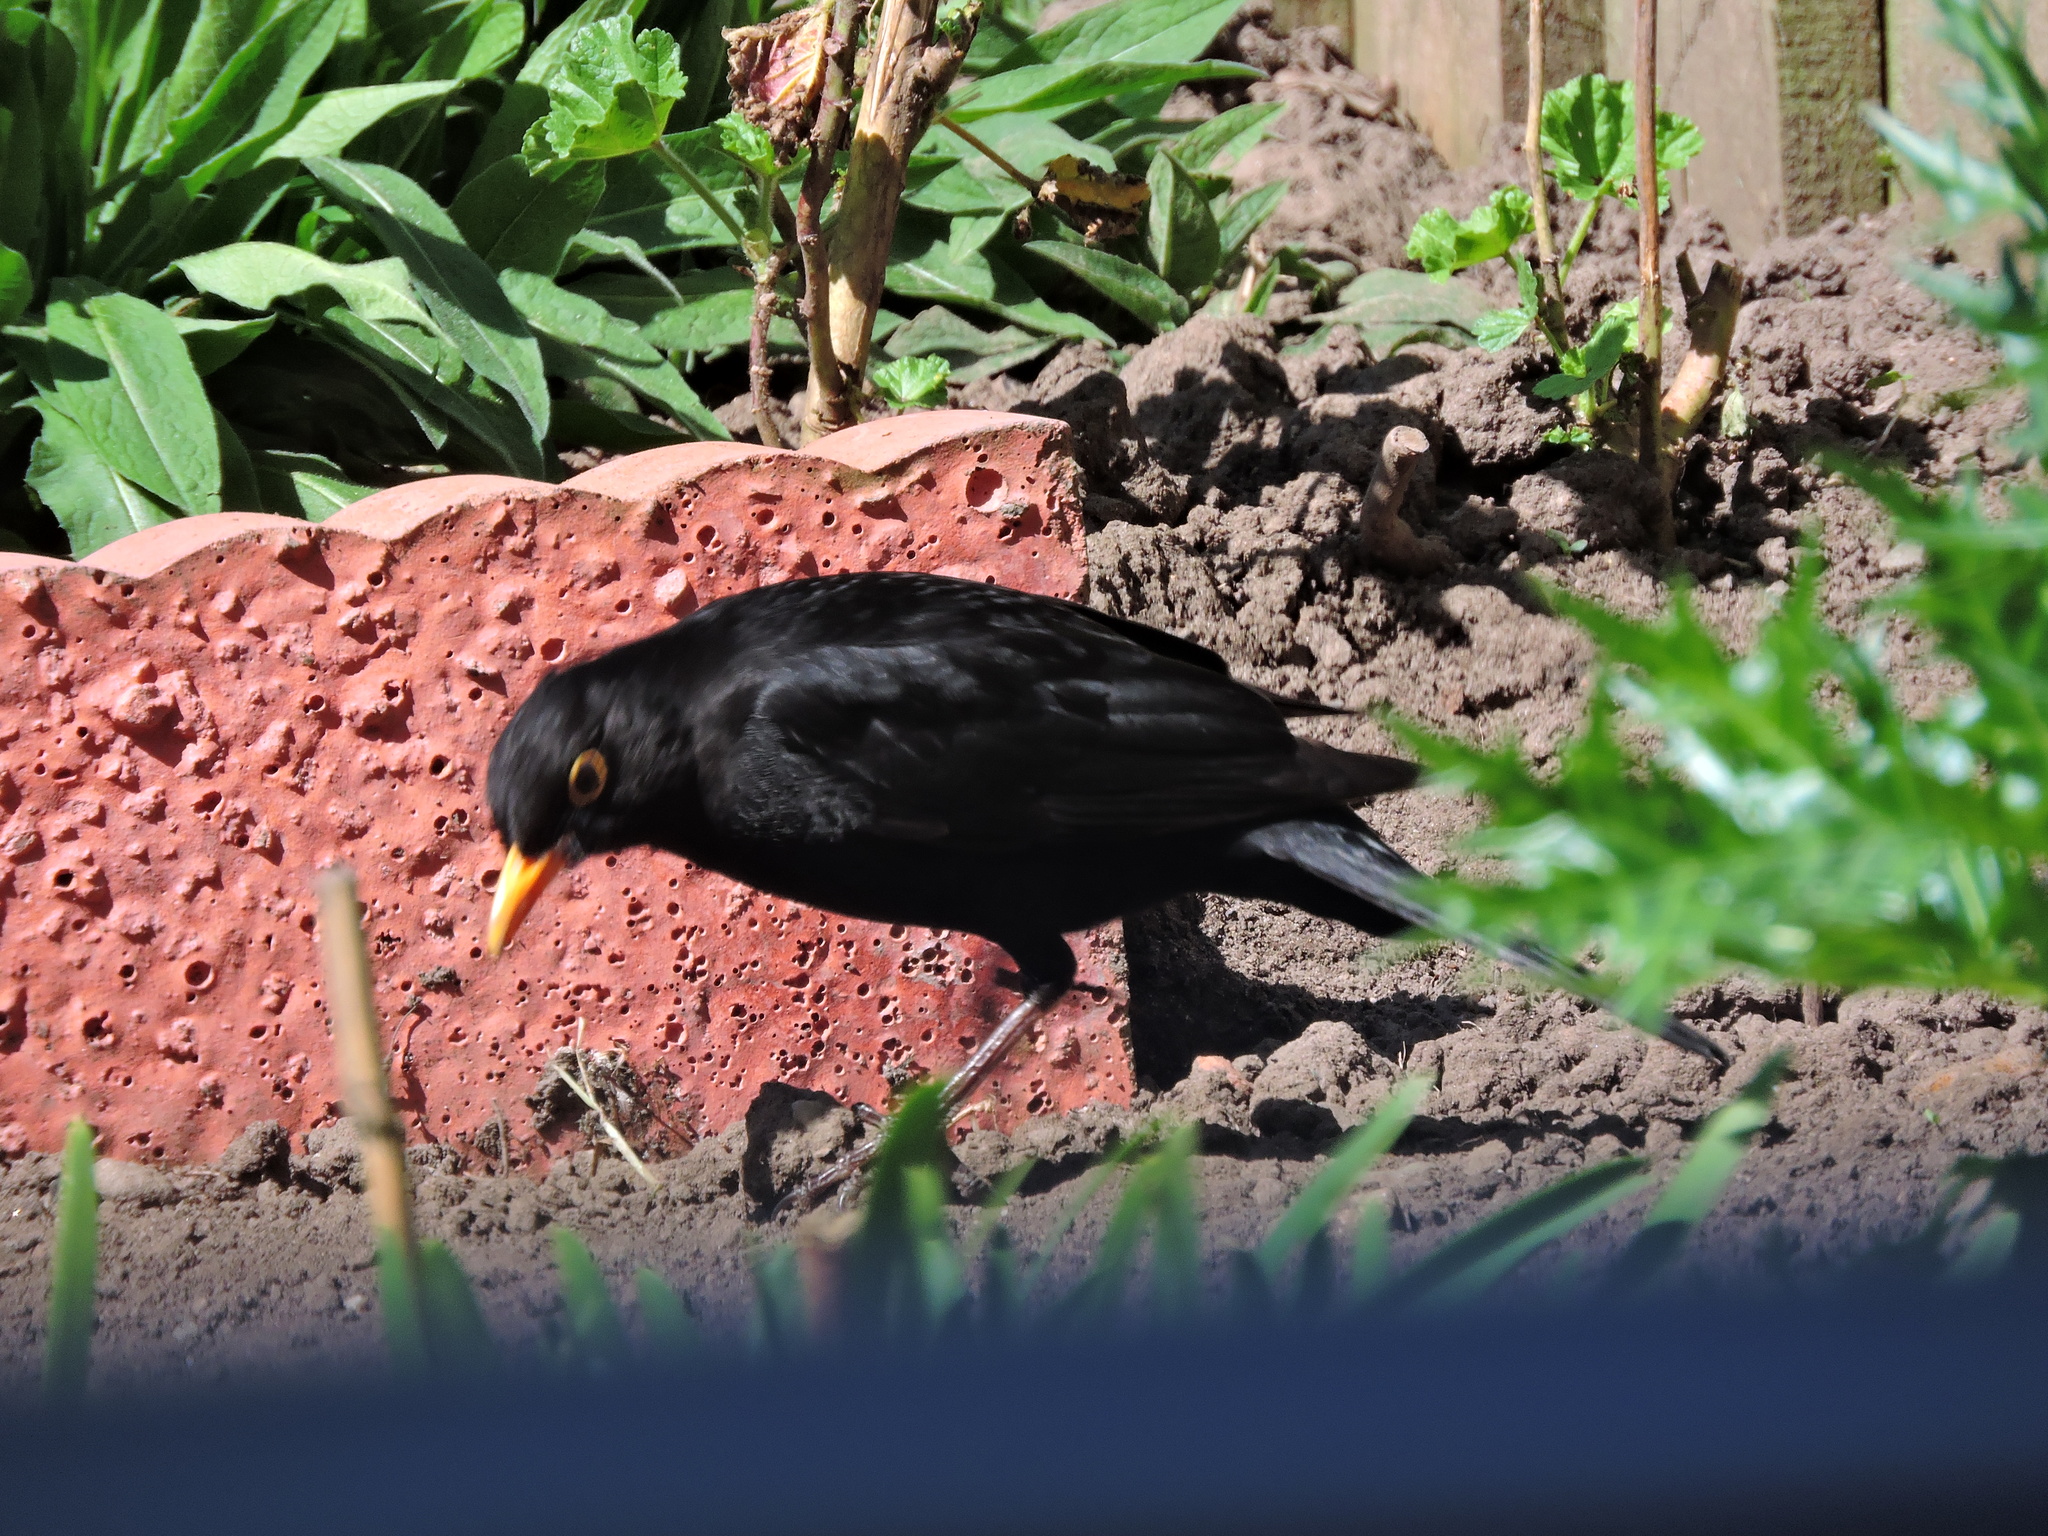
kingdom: Animalia
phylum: Chordata
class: Aves
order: Passeriformes
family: Turdidae
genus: Turdus
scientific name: Turdus merula
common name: Common blackbird
